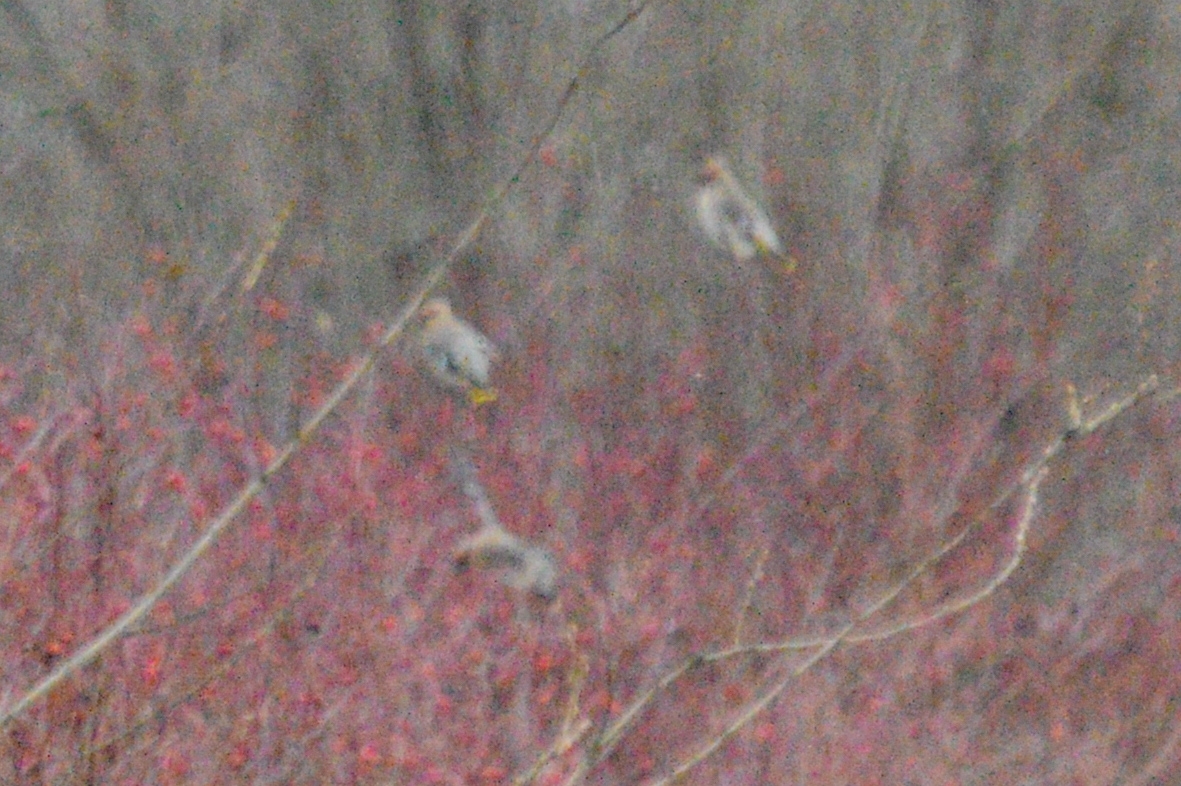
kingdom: Animalia
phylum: Chordata
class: Aves
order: Passeriformes
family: Bombycillidae
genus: Bombycilla
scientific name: Bombycilla garrulus
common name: Bohemian waxwing
